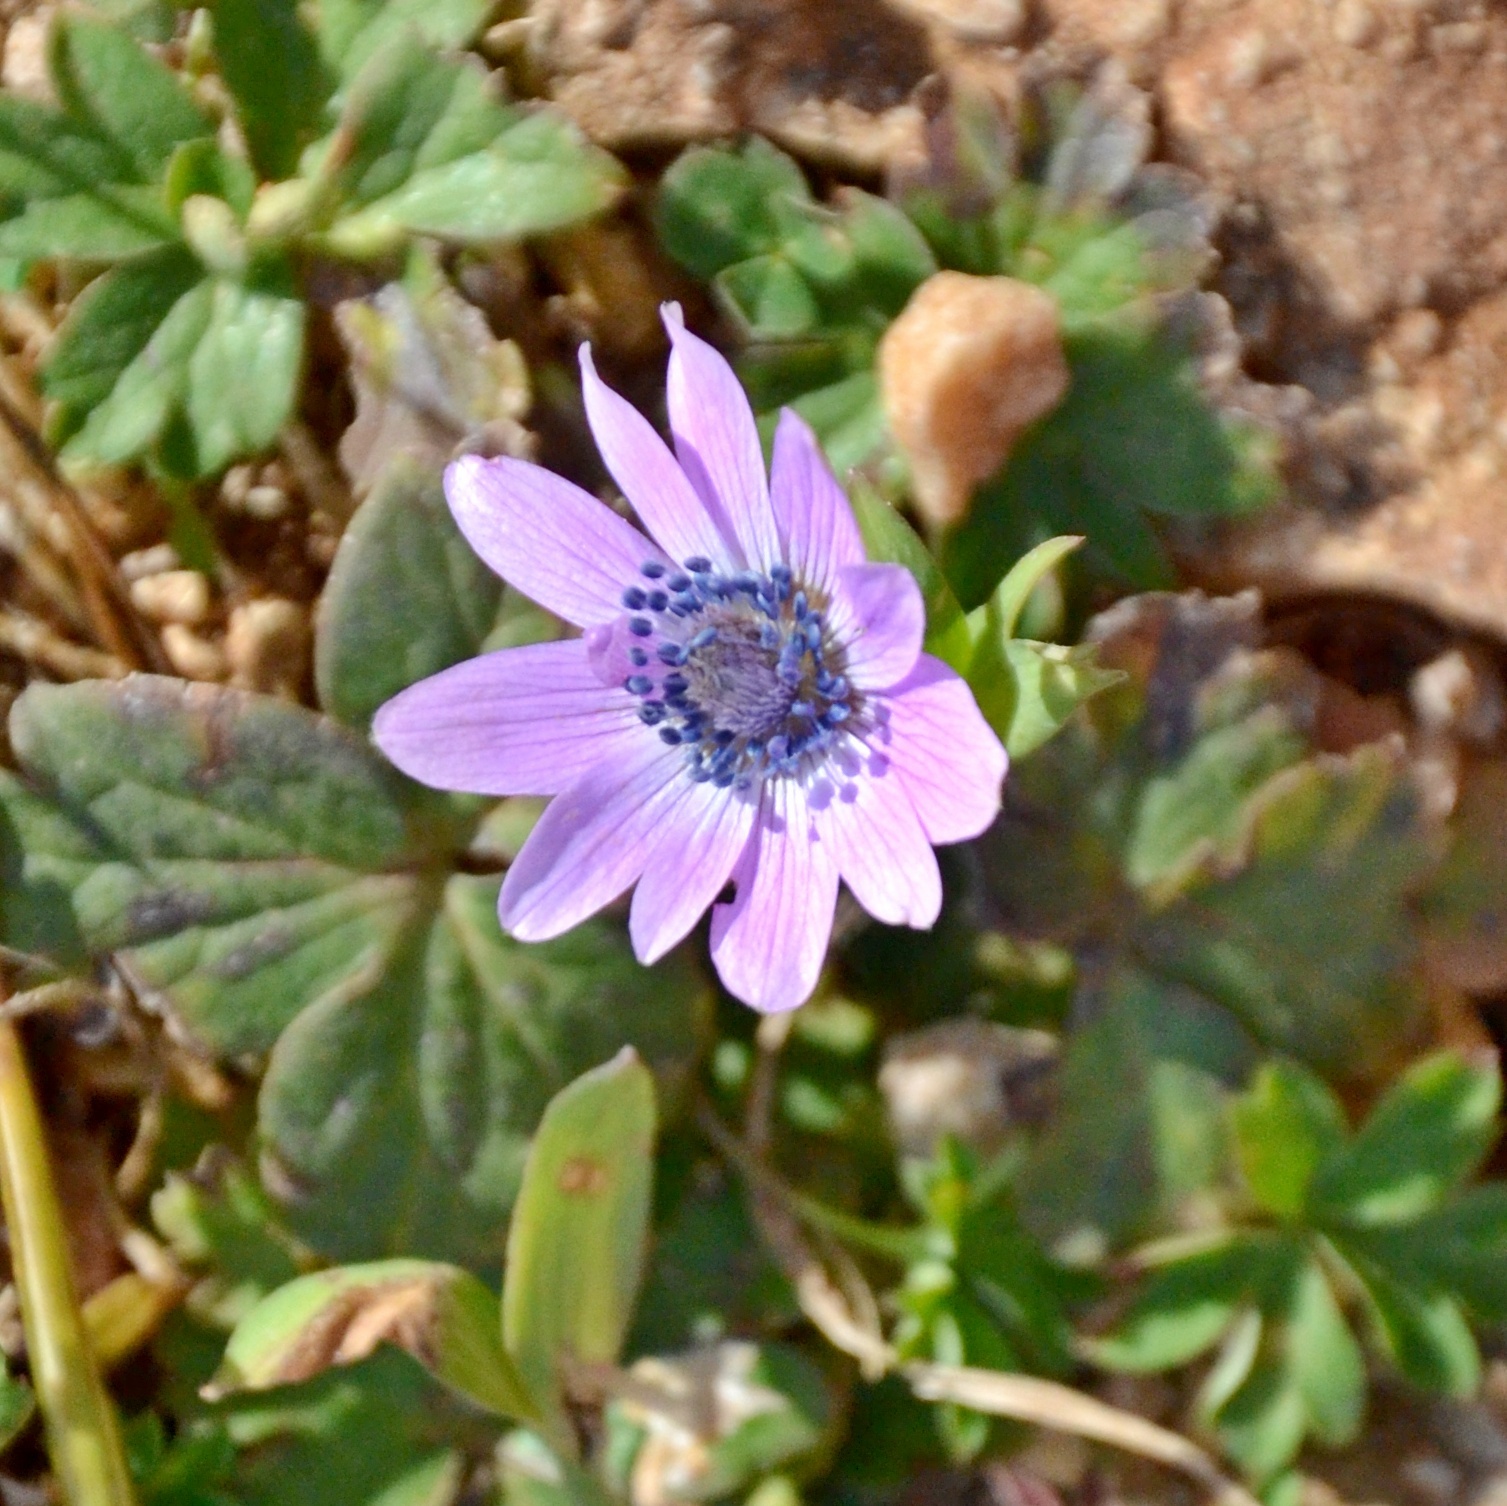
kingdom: Plantae
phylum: Tracheophyta
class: Magnoliopsida
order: Ranunculales
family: Ranunculaceae
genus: Anemone
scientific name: Anemone hortensis
